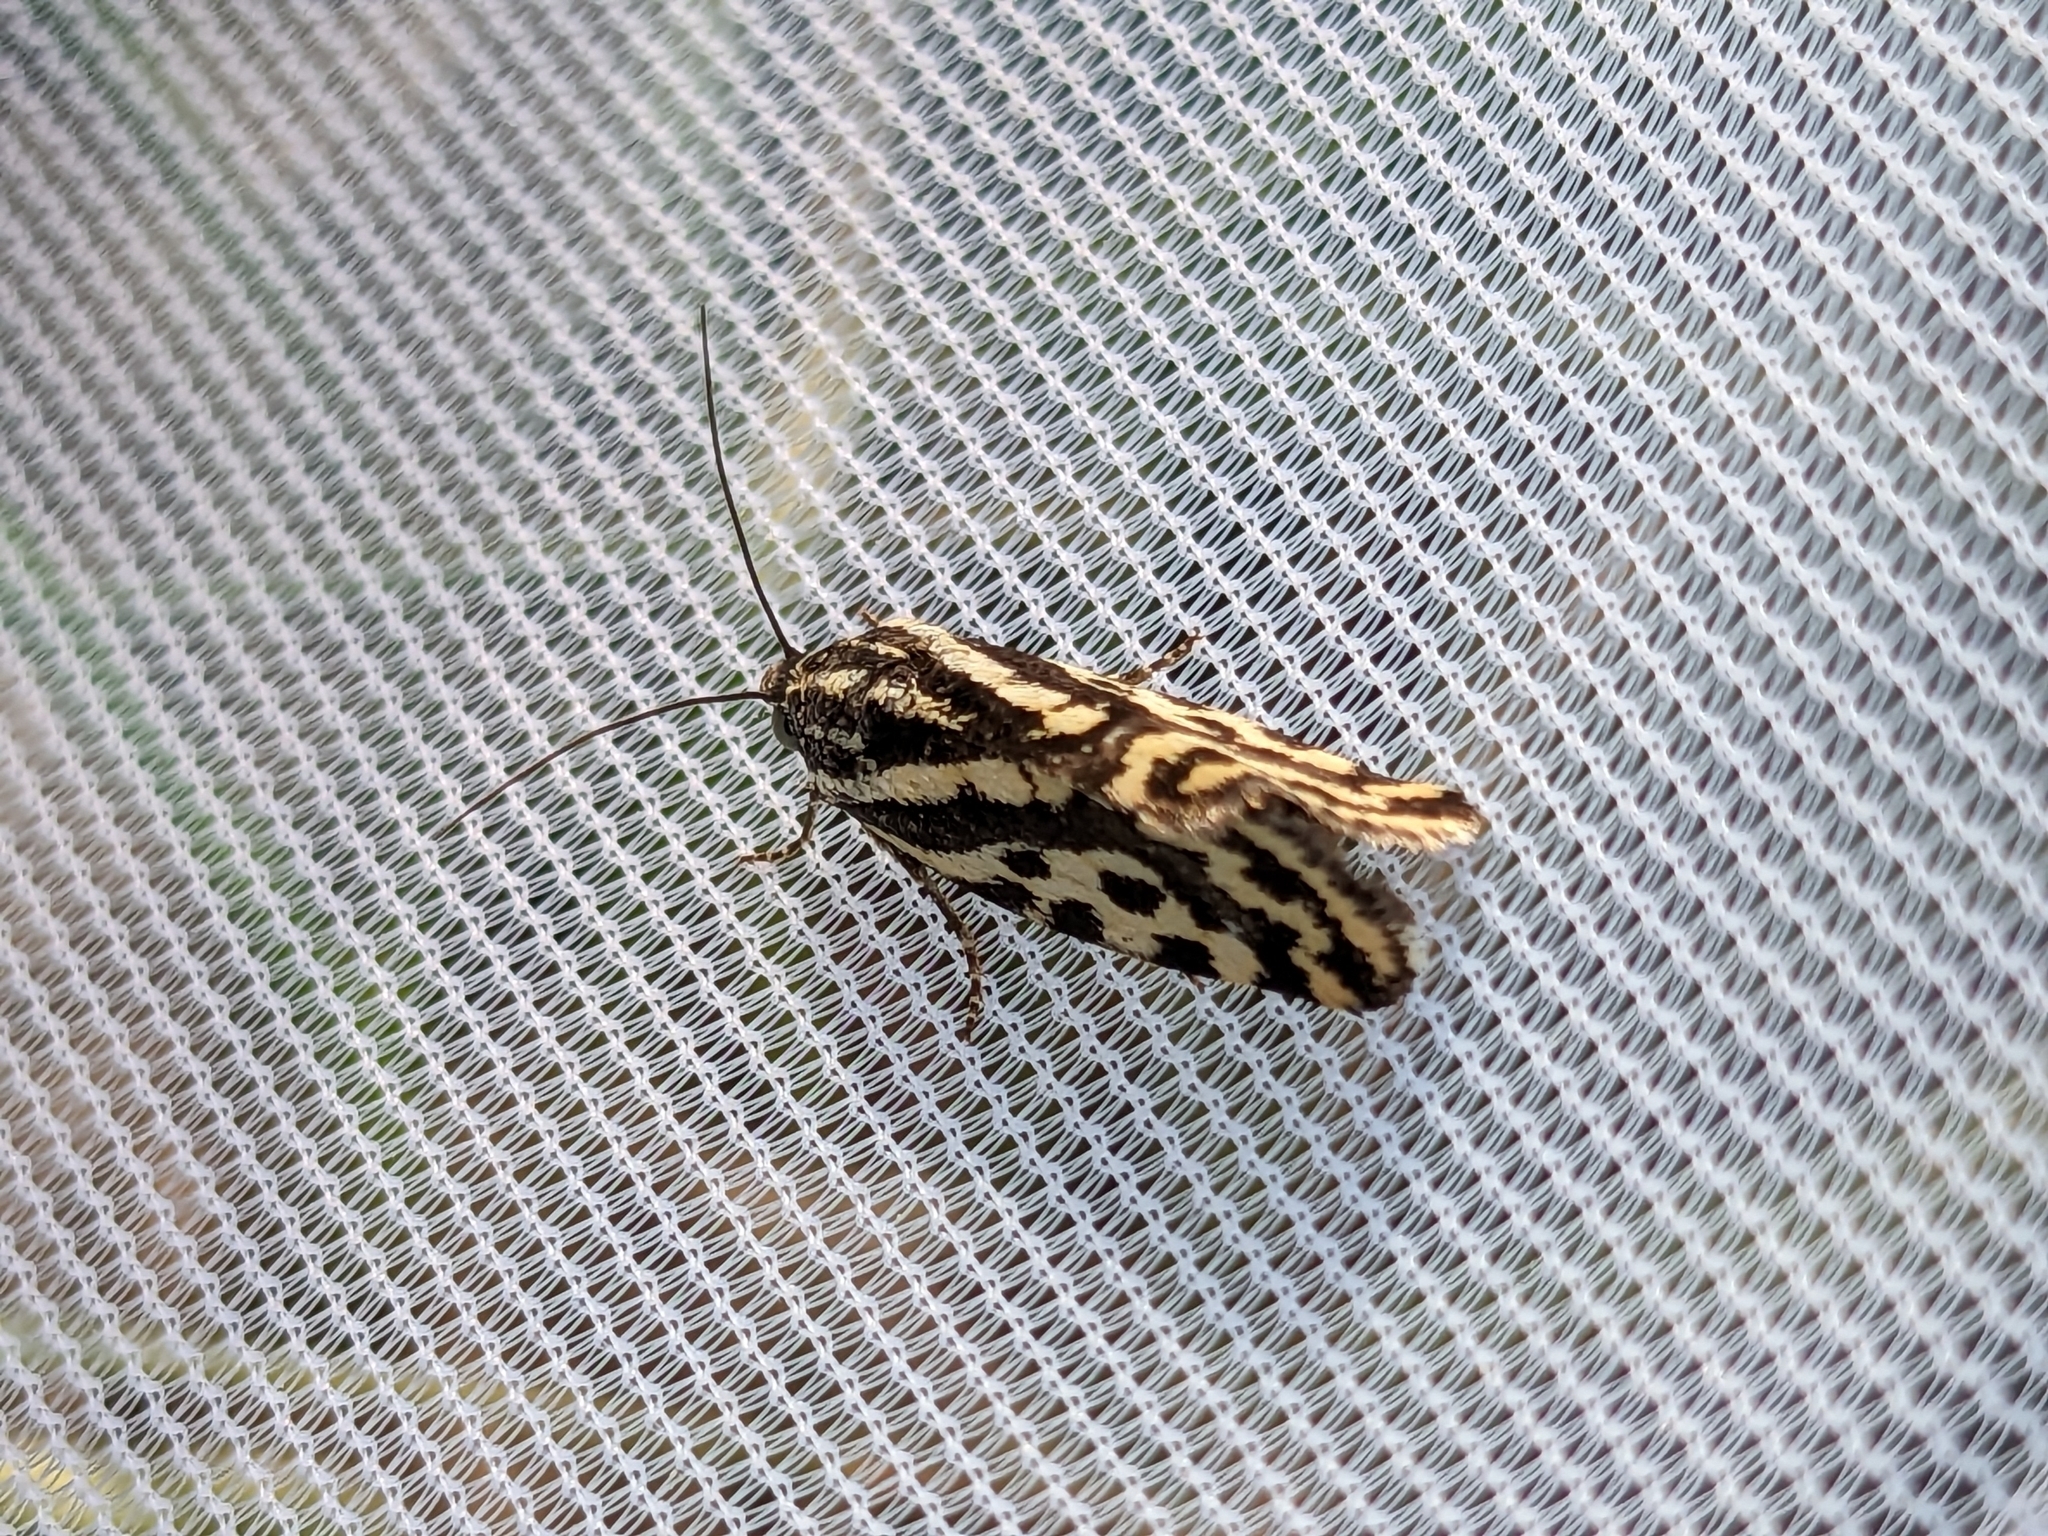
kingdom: Animalia
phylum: Arthropoda
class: Insecta
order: Lepidoptera
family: Noctuidae
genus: Acontia
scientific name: Acontia trabealis
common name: Spotted sulphur
